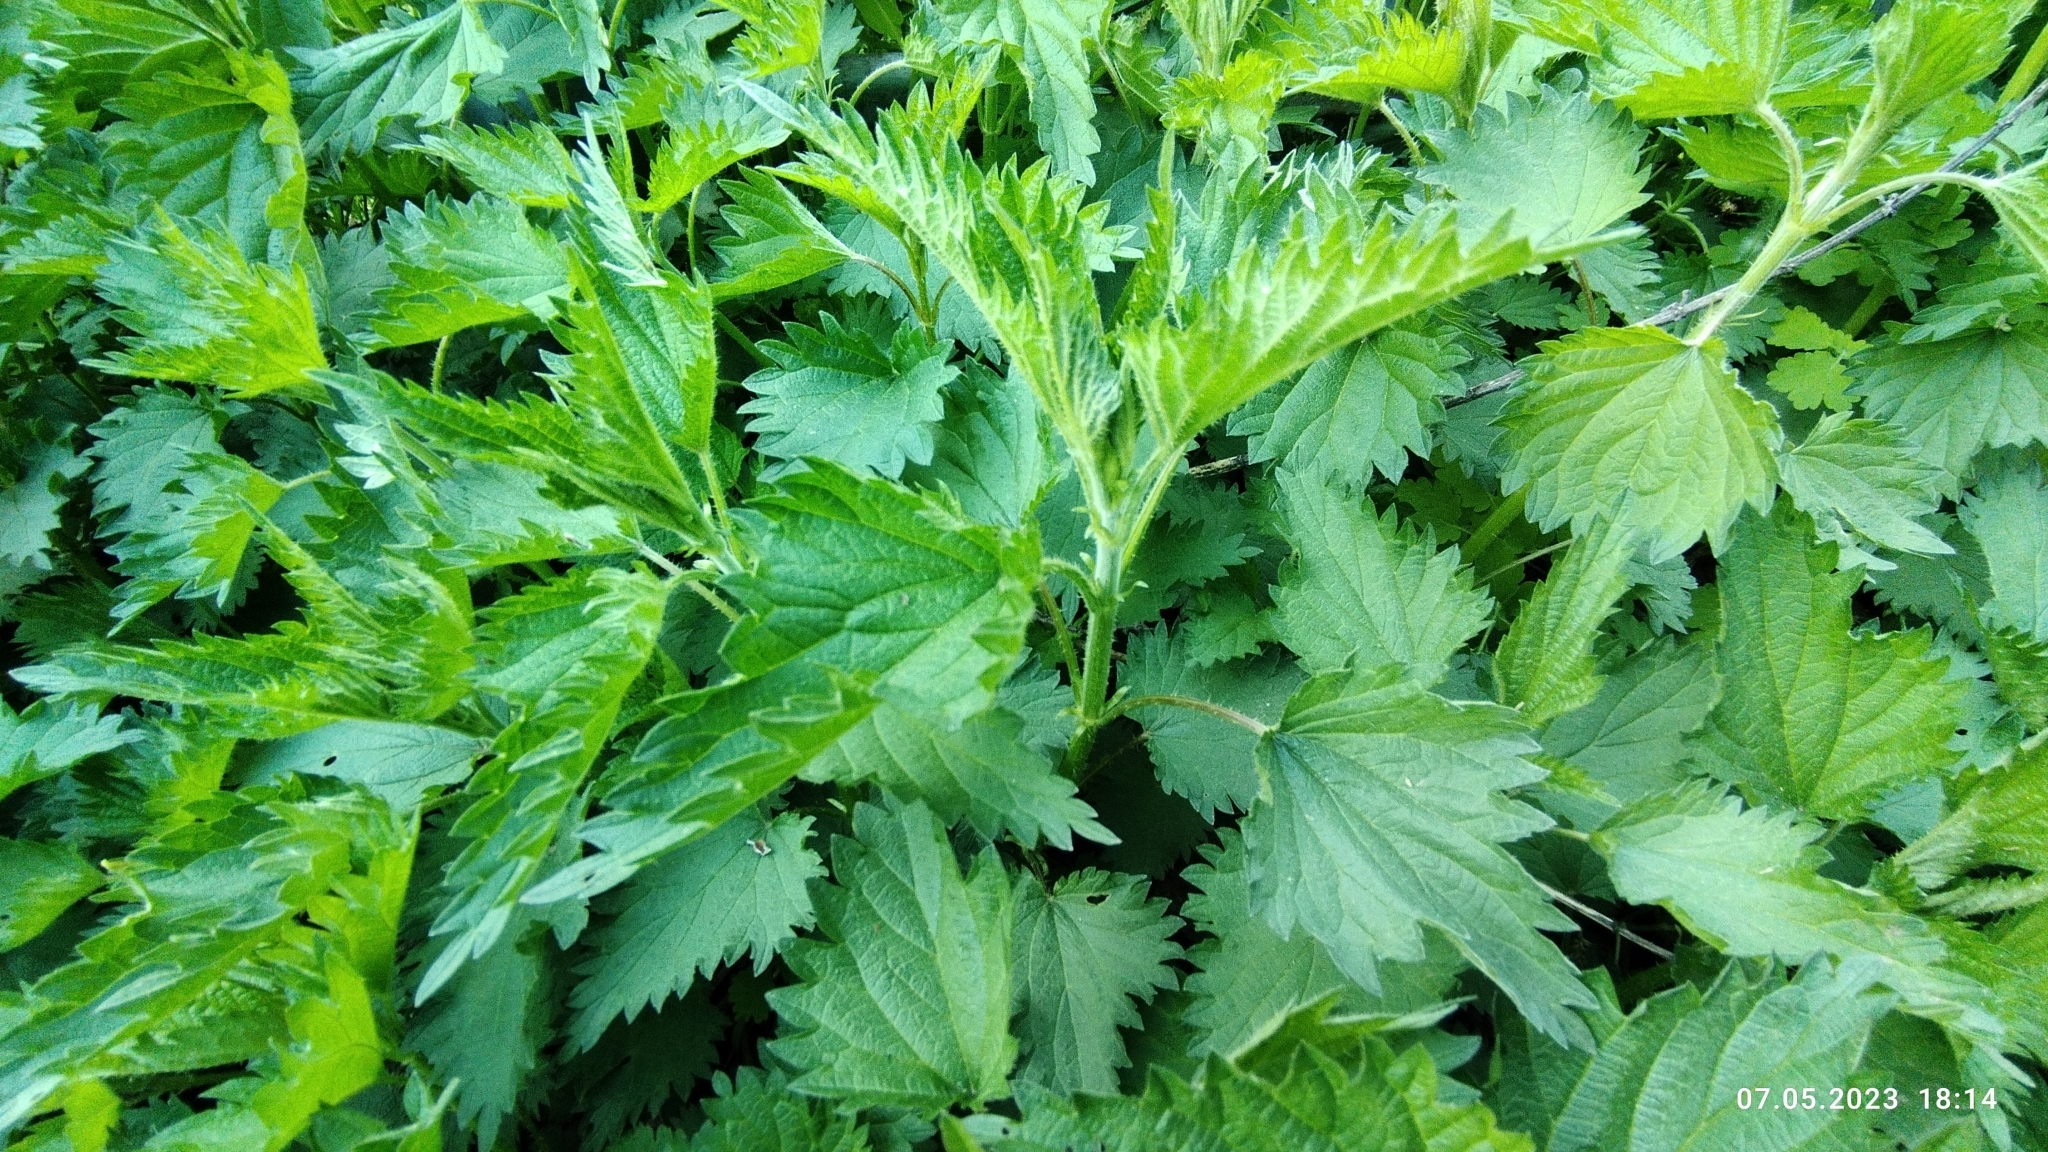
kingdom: Plantae
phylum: Tracheophyta
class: Magnoliopsida
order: Rosales
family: Urticaceae
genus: Urtica
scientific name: Urtica dioica
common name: Common nettle
